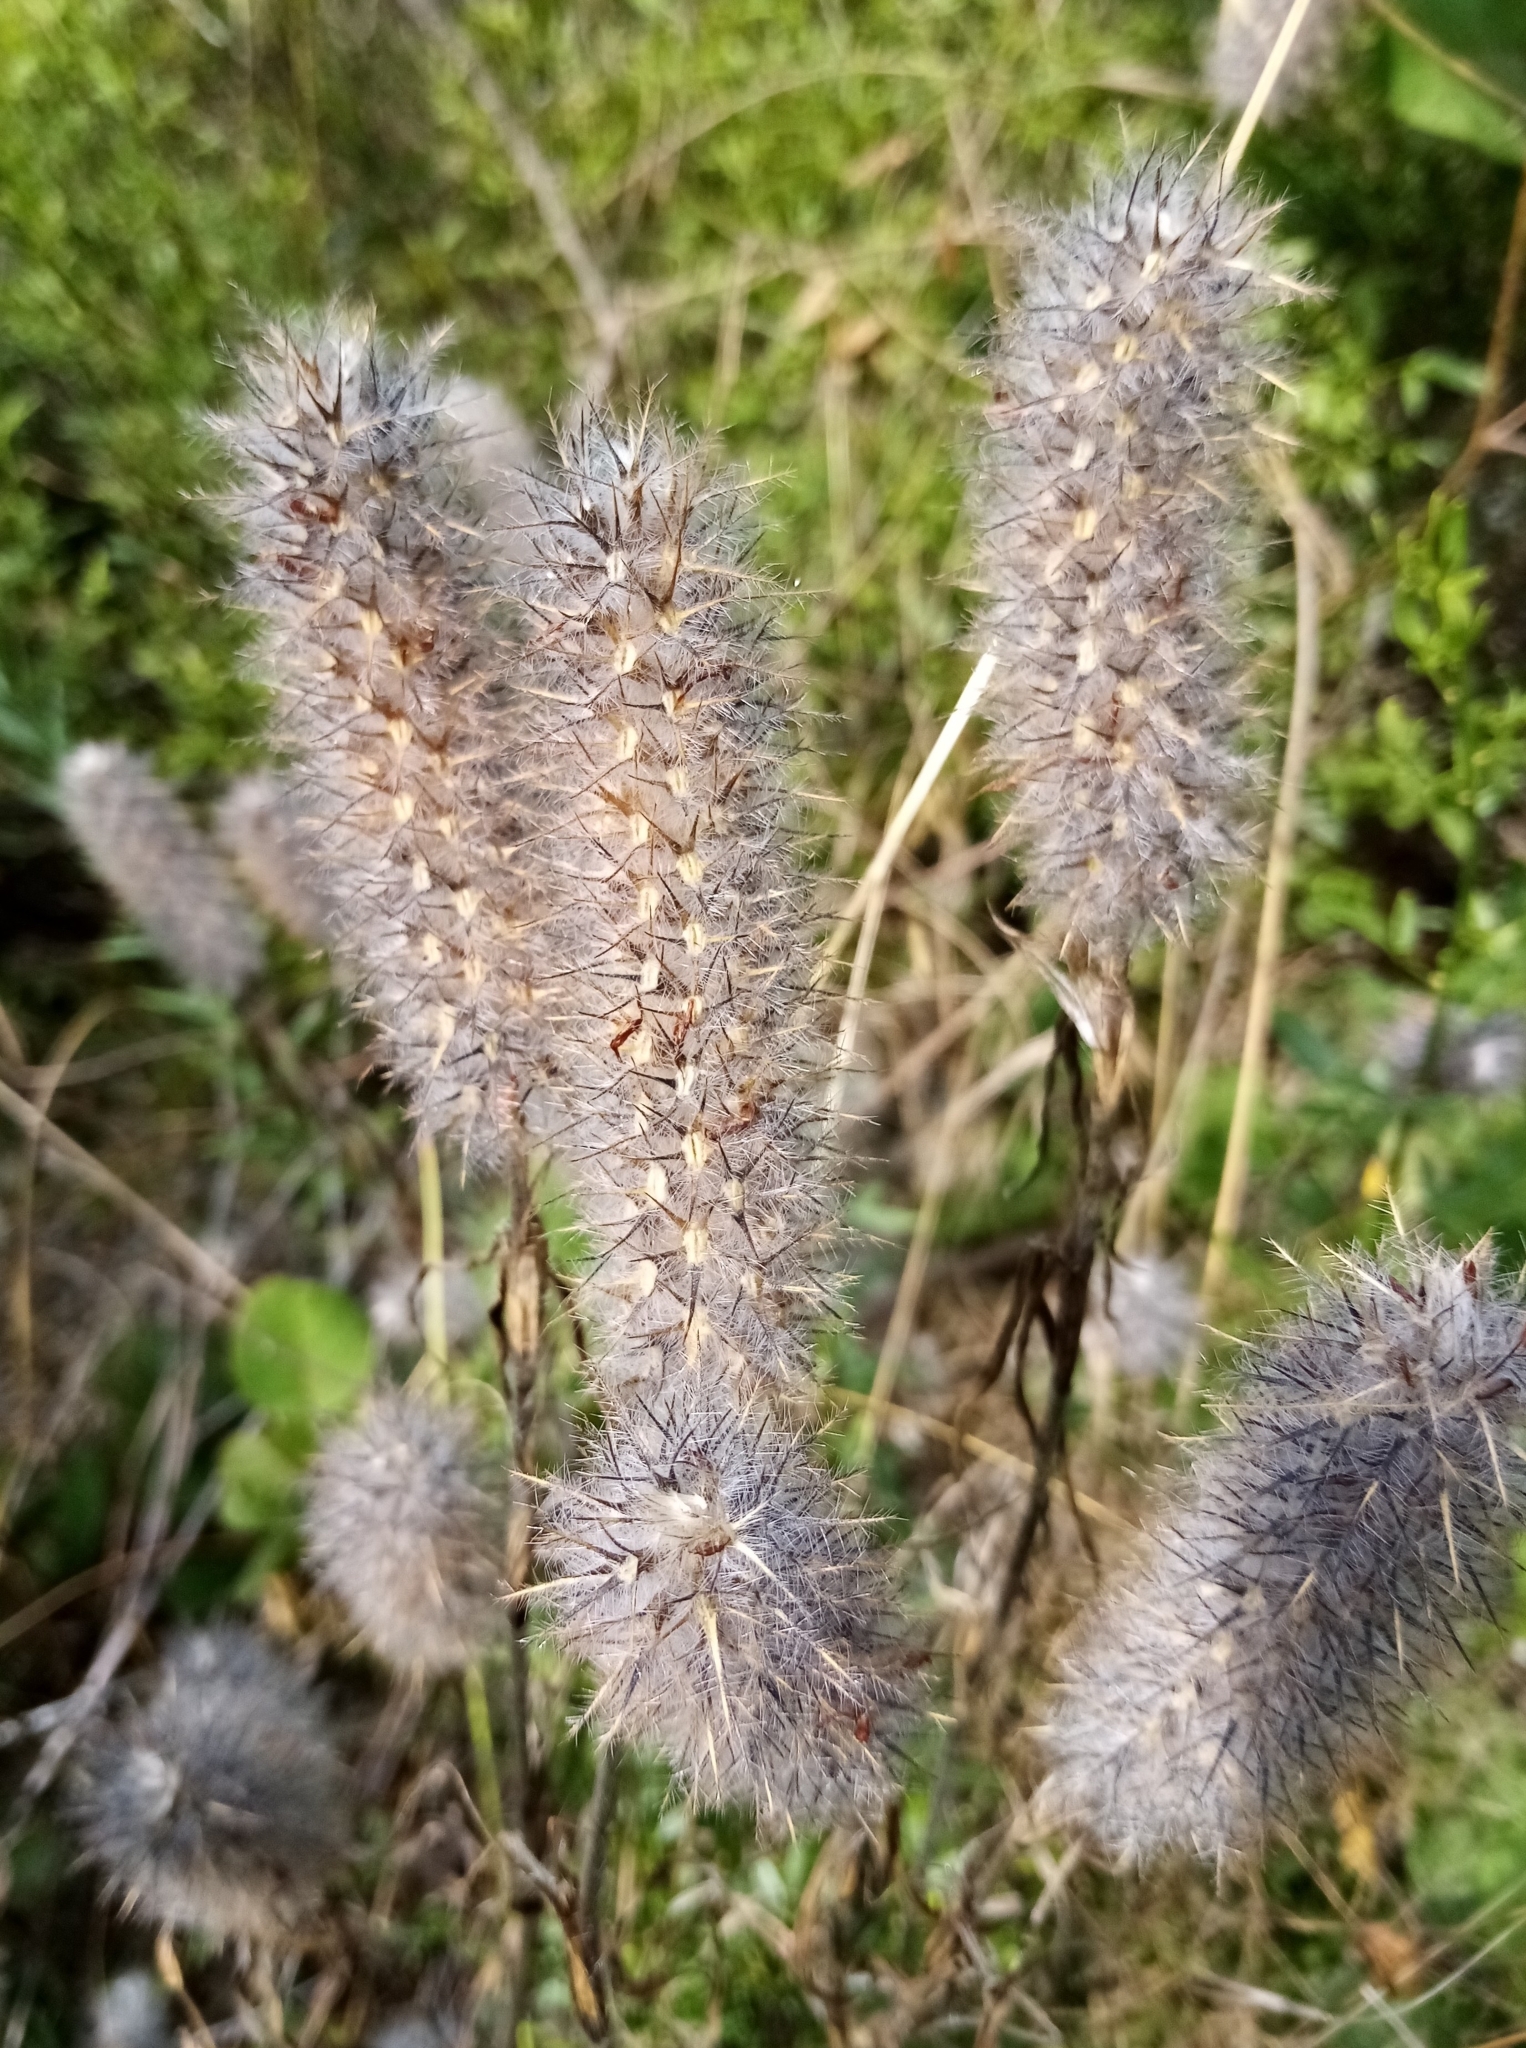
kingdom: Plantae
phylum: Tracheophyta
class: Magnoliopsida
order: Fabales
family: Fabaceae
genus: Trifolium
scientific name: Trifolium angustifolium
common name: Narrow clover
